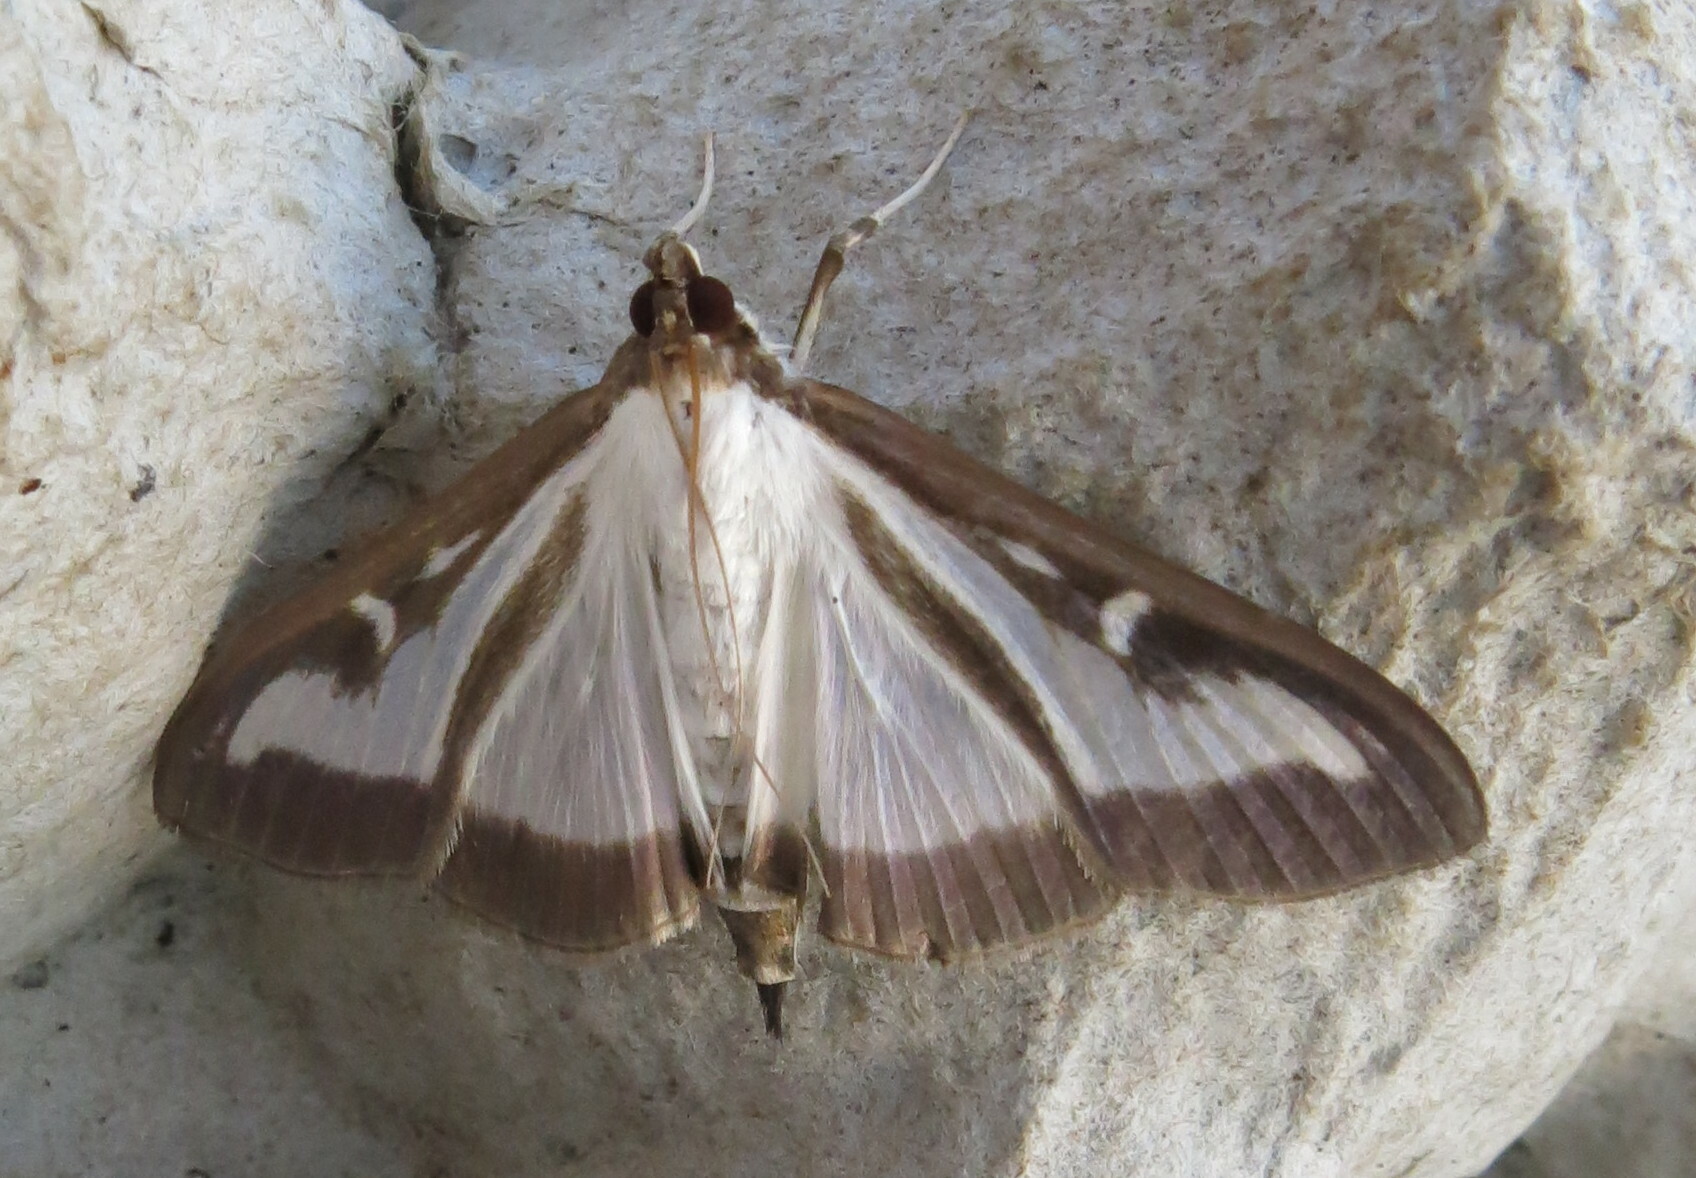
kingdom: Animalia
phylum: Arthropoda
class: Insecta
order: Lepidoptera
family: Crambidae
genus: Cydalima
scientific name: Cydalima perspectalis
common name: Box tree moth
